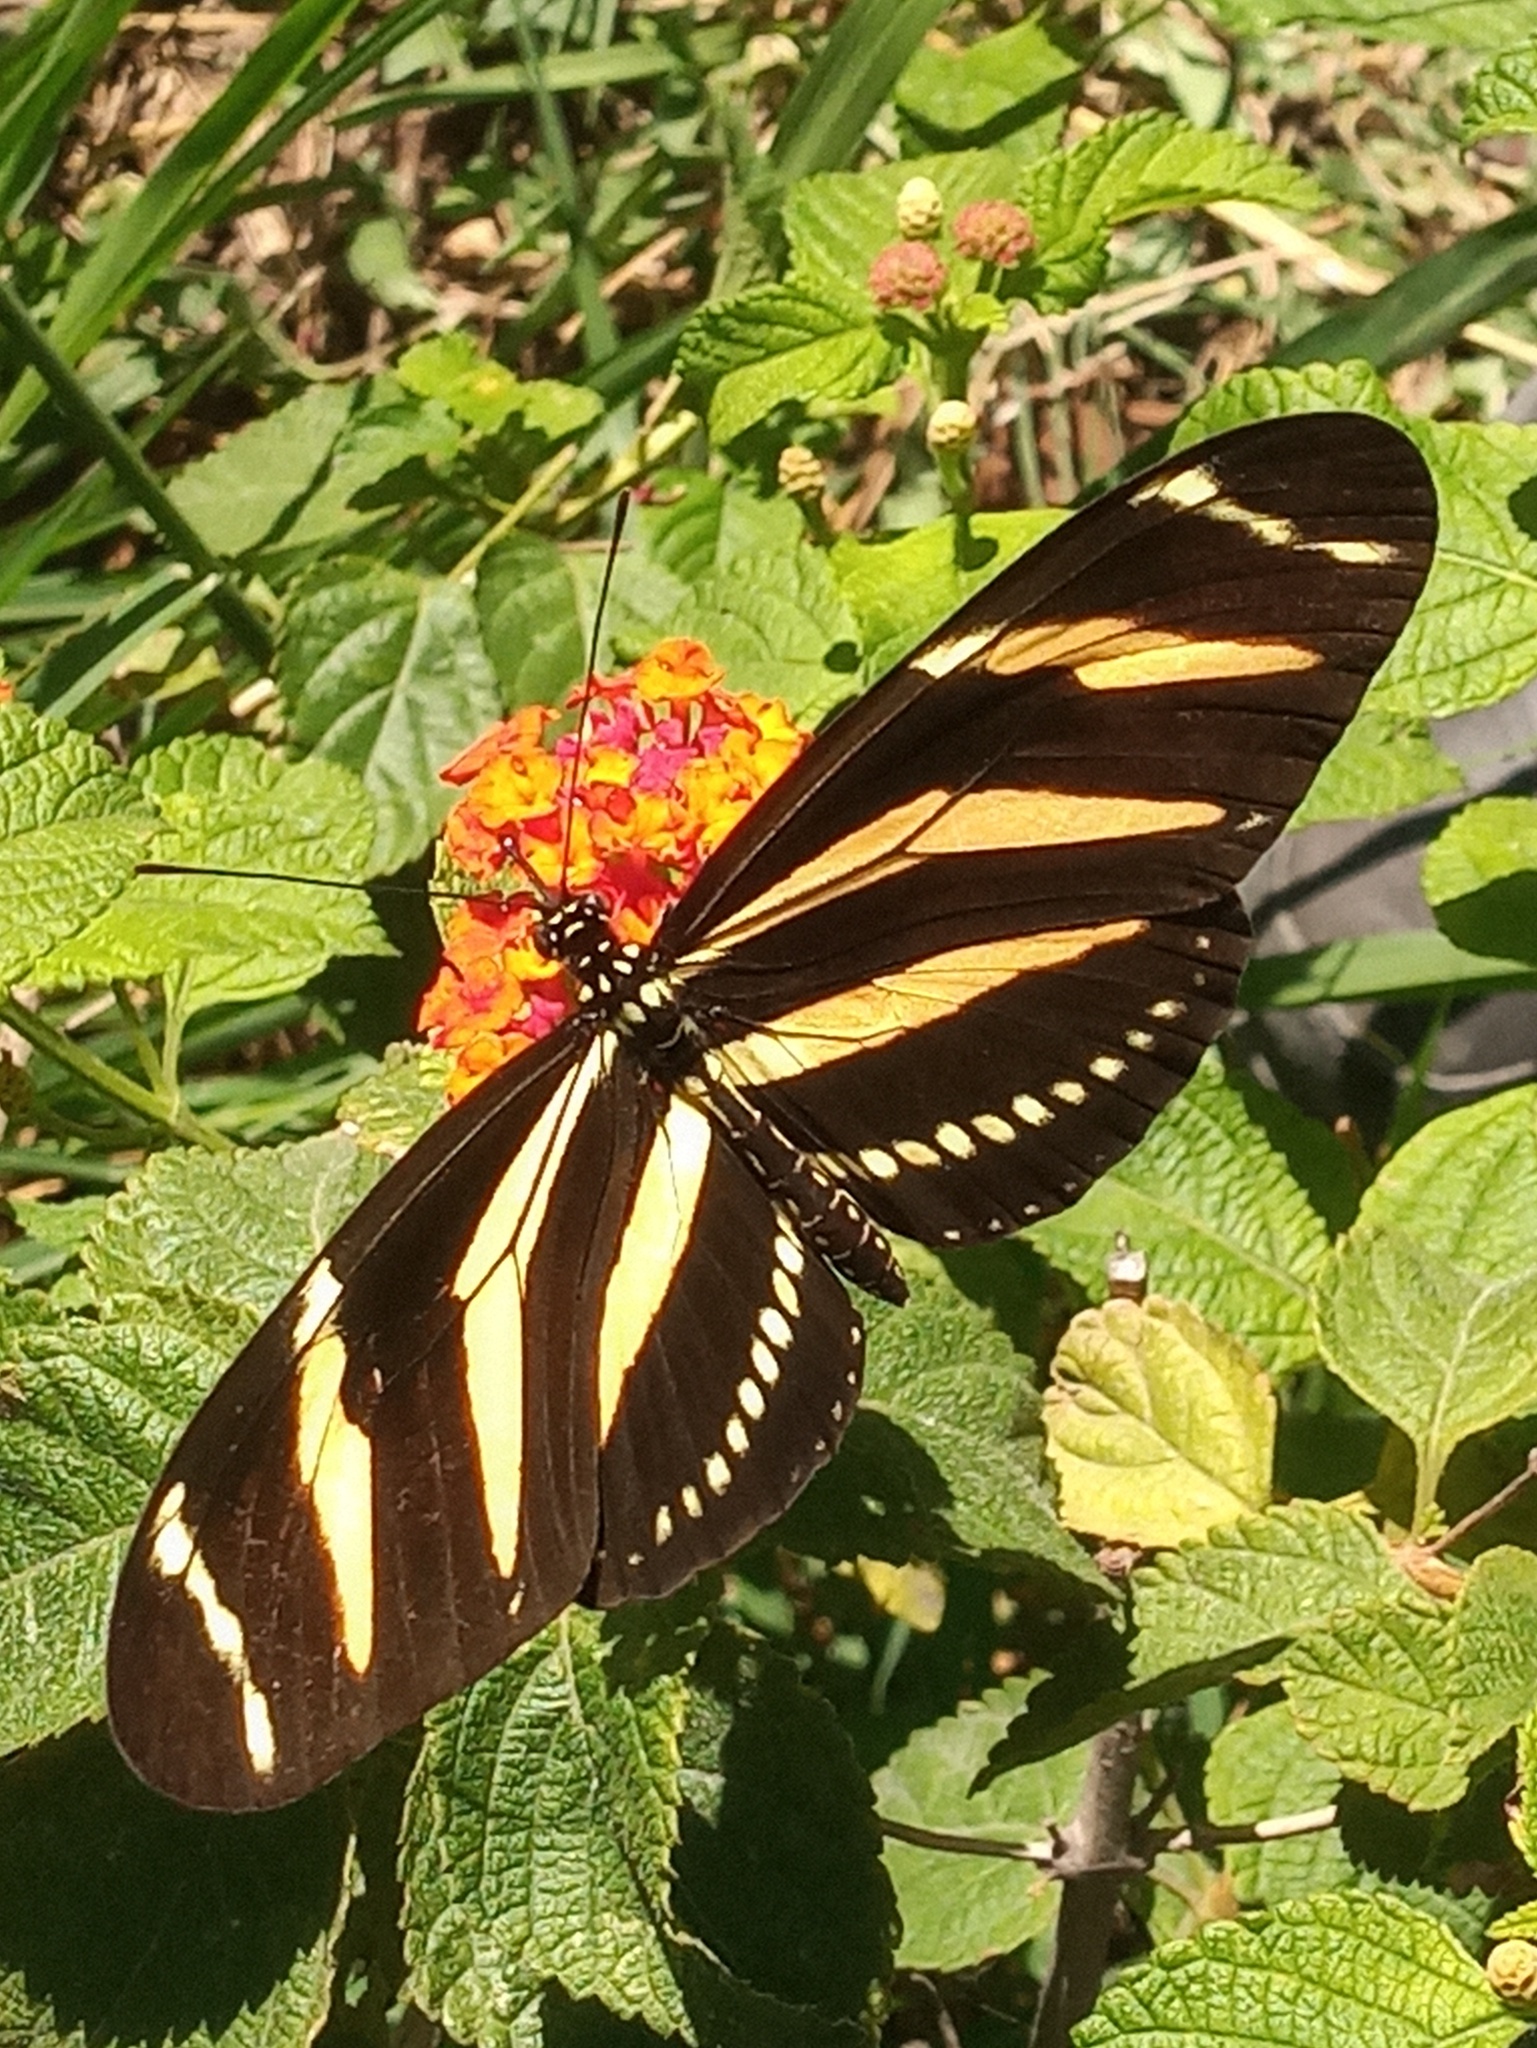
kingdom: Animalia
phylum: Arthropoda
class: Insecta
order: Lepidoptera
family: Nymphalidae
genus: Heliconius
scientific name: Heliconius charithonia
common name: Zebra long wing
